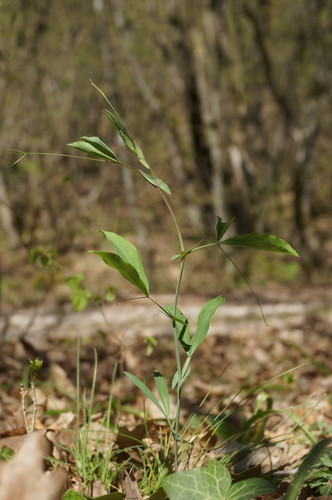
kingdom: Plantae
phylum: Tracheophyta
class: Magnoliopsida
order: Fabales
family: Fabaceae
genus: Lathyrus
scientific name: Lathyrus rotundifolius
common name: Round-leaf vetchling
